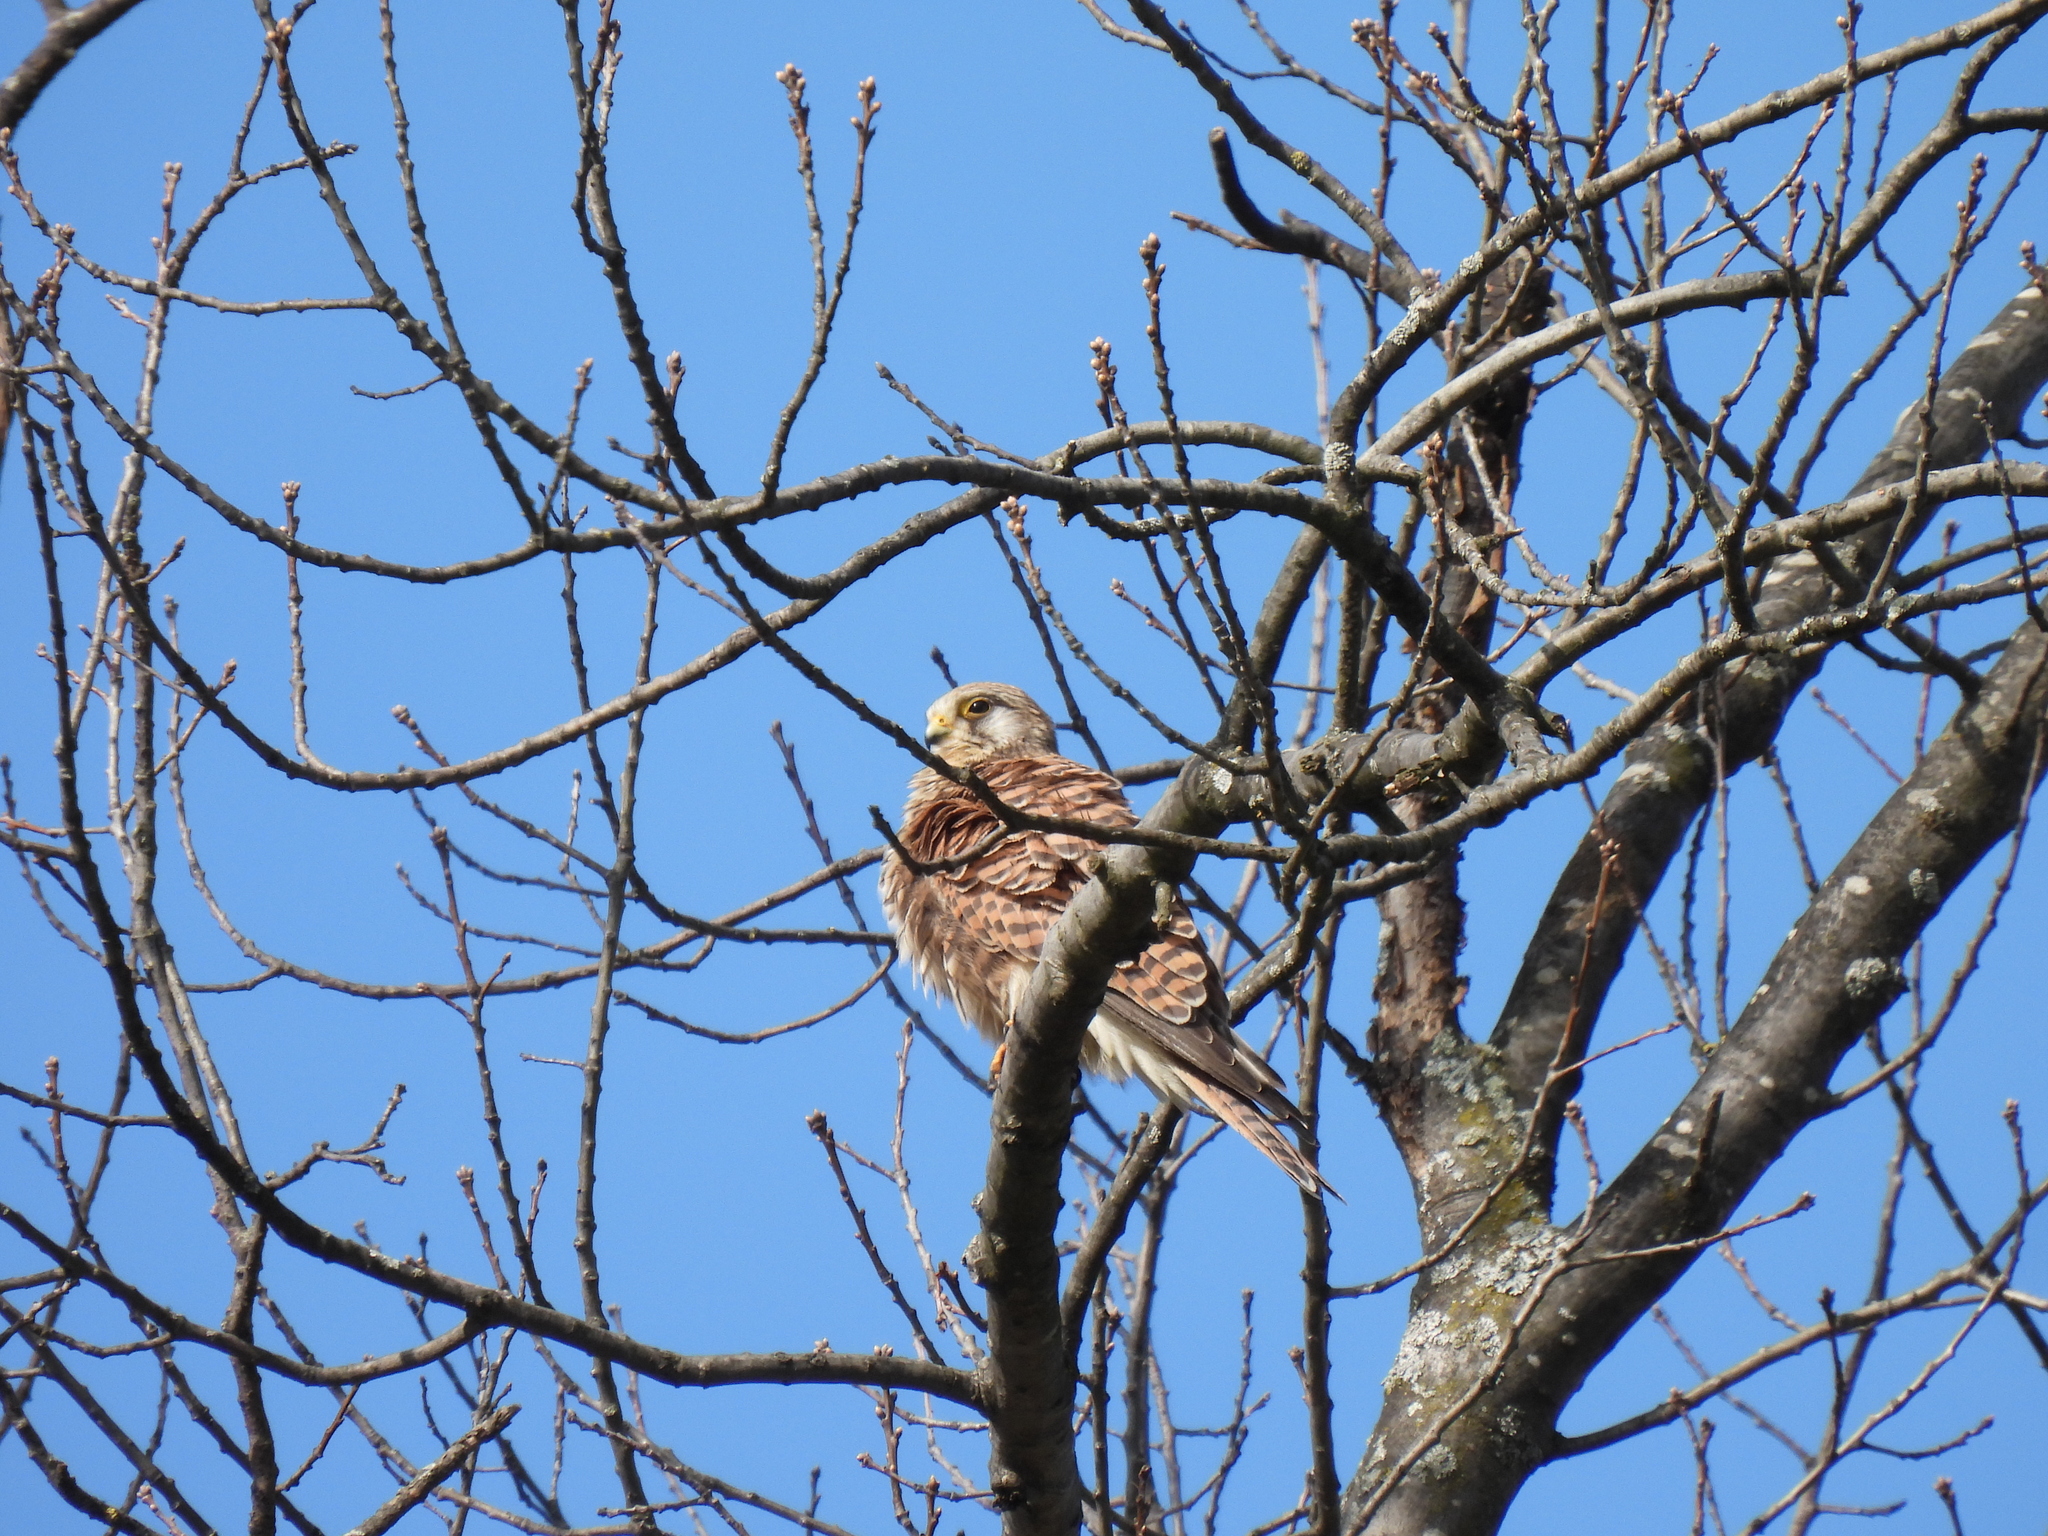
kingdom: Animalia
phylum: Chordata
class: Aves
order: Falconiformes
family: Falconidae
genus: Falco
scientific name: Falco tinnunculus
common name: Common kestrel
